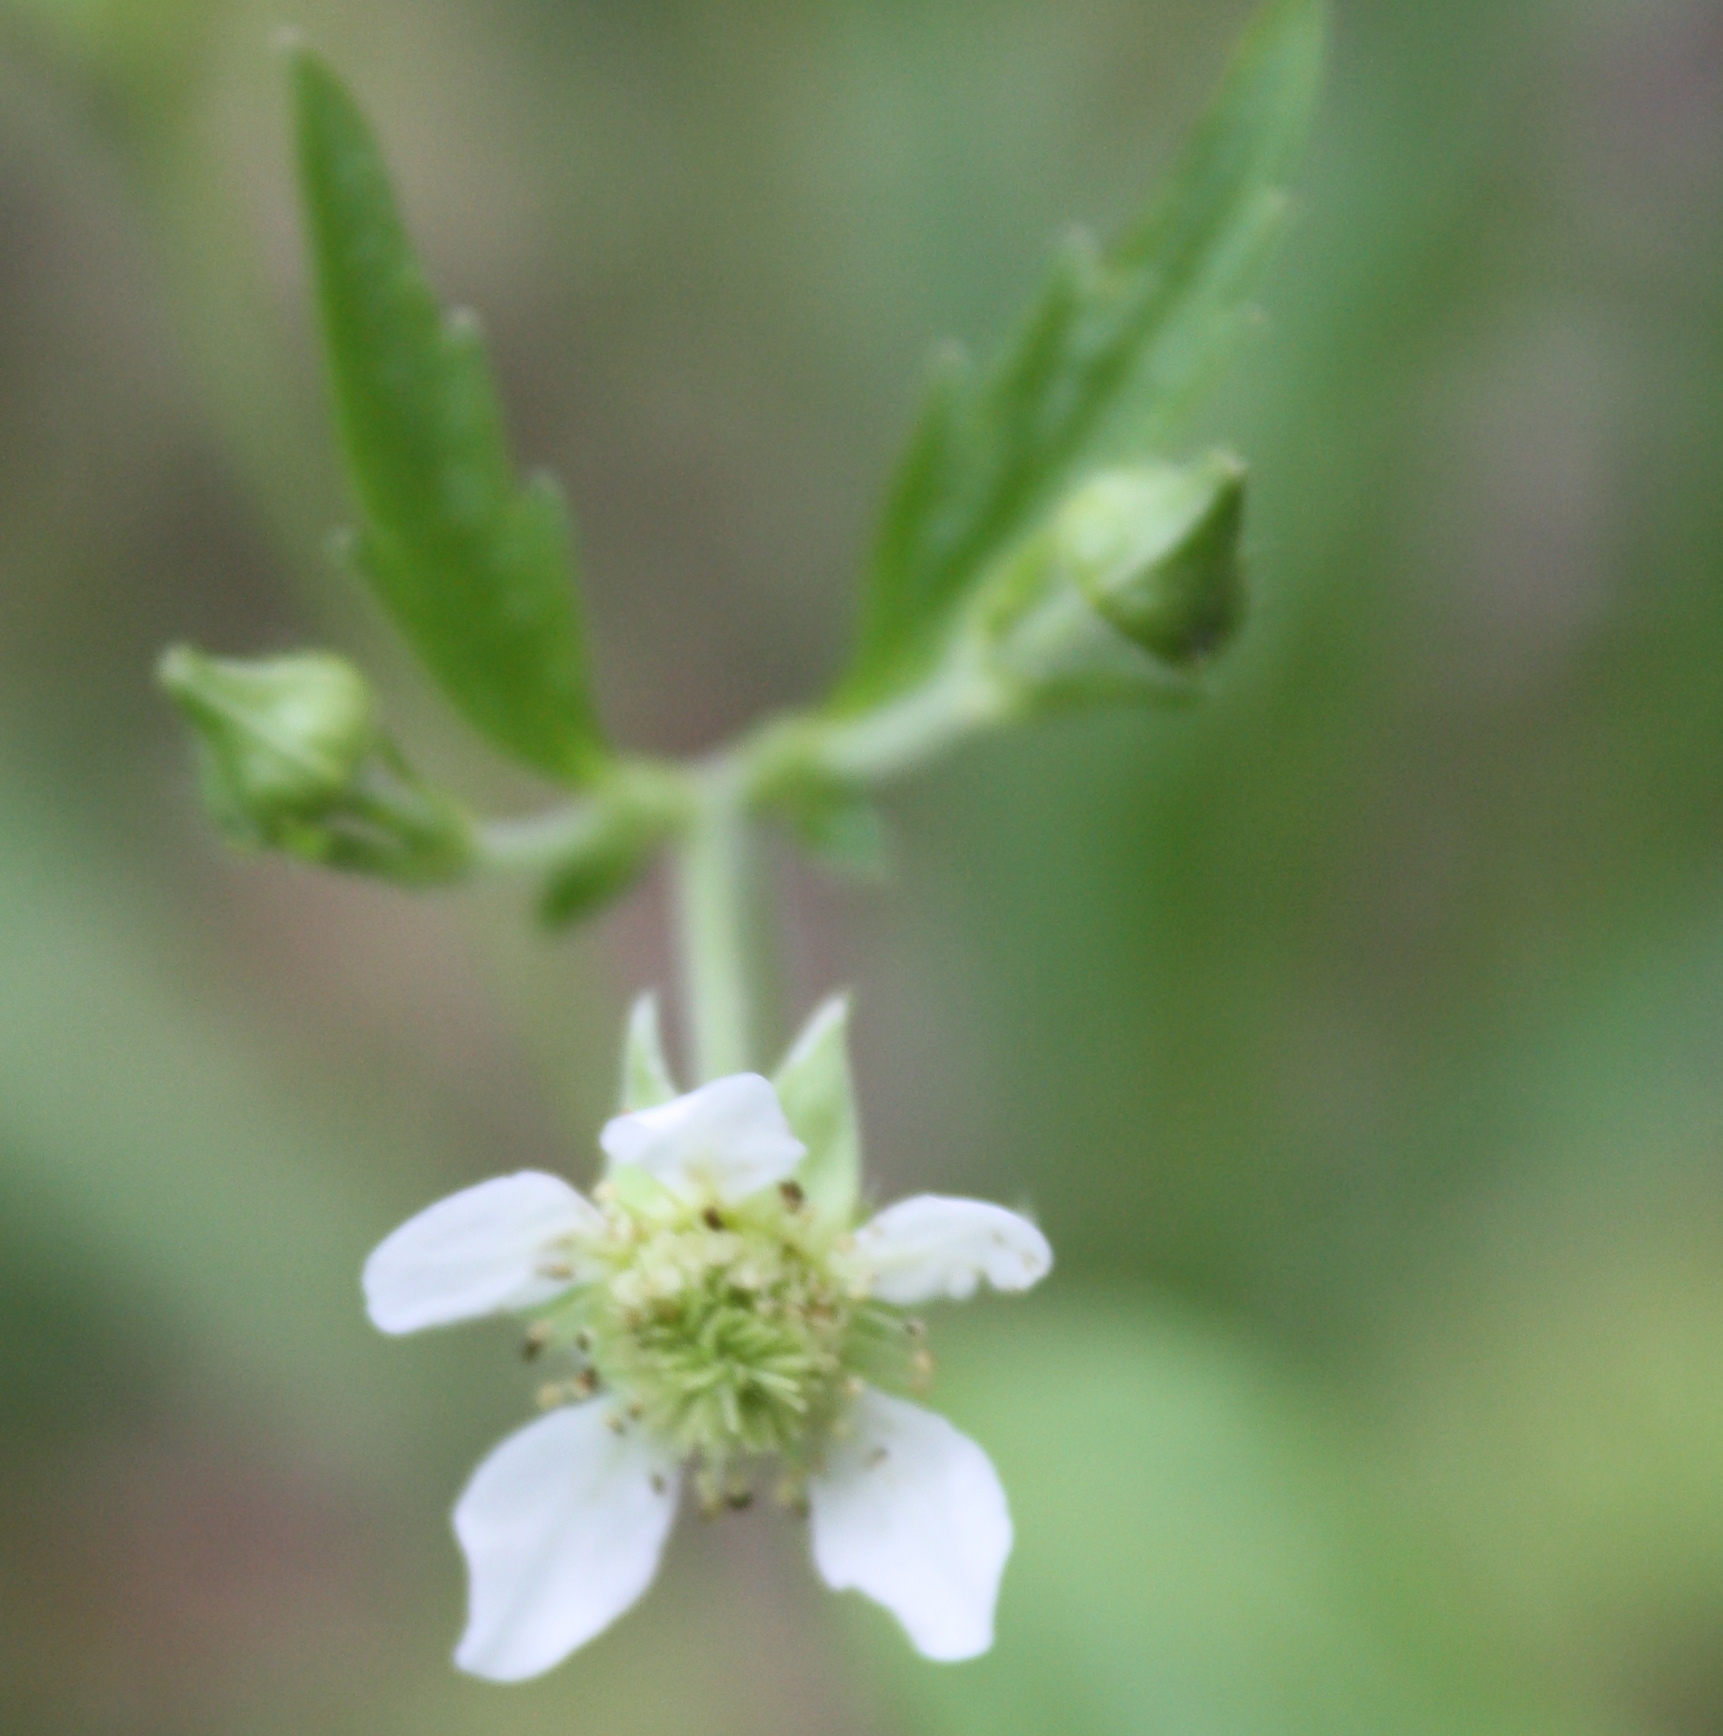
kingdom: Plantae
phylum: Tracheophyta
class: Magnoliopsida
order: Rosales
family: Rosaceae
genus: Geum
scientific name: Geum canadense
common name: White avens
